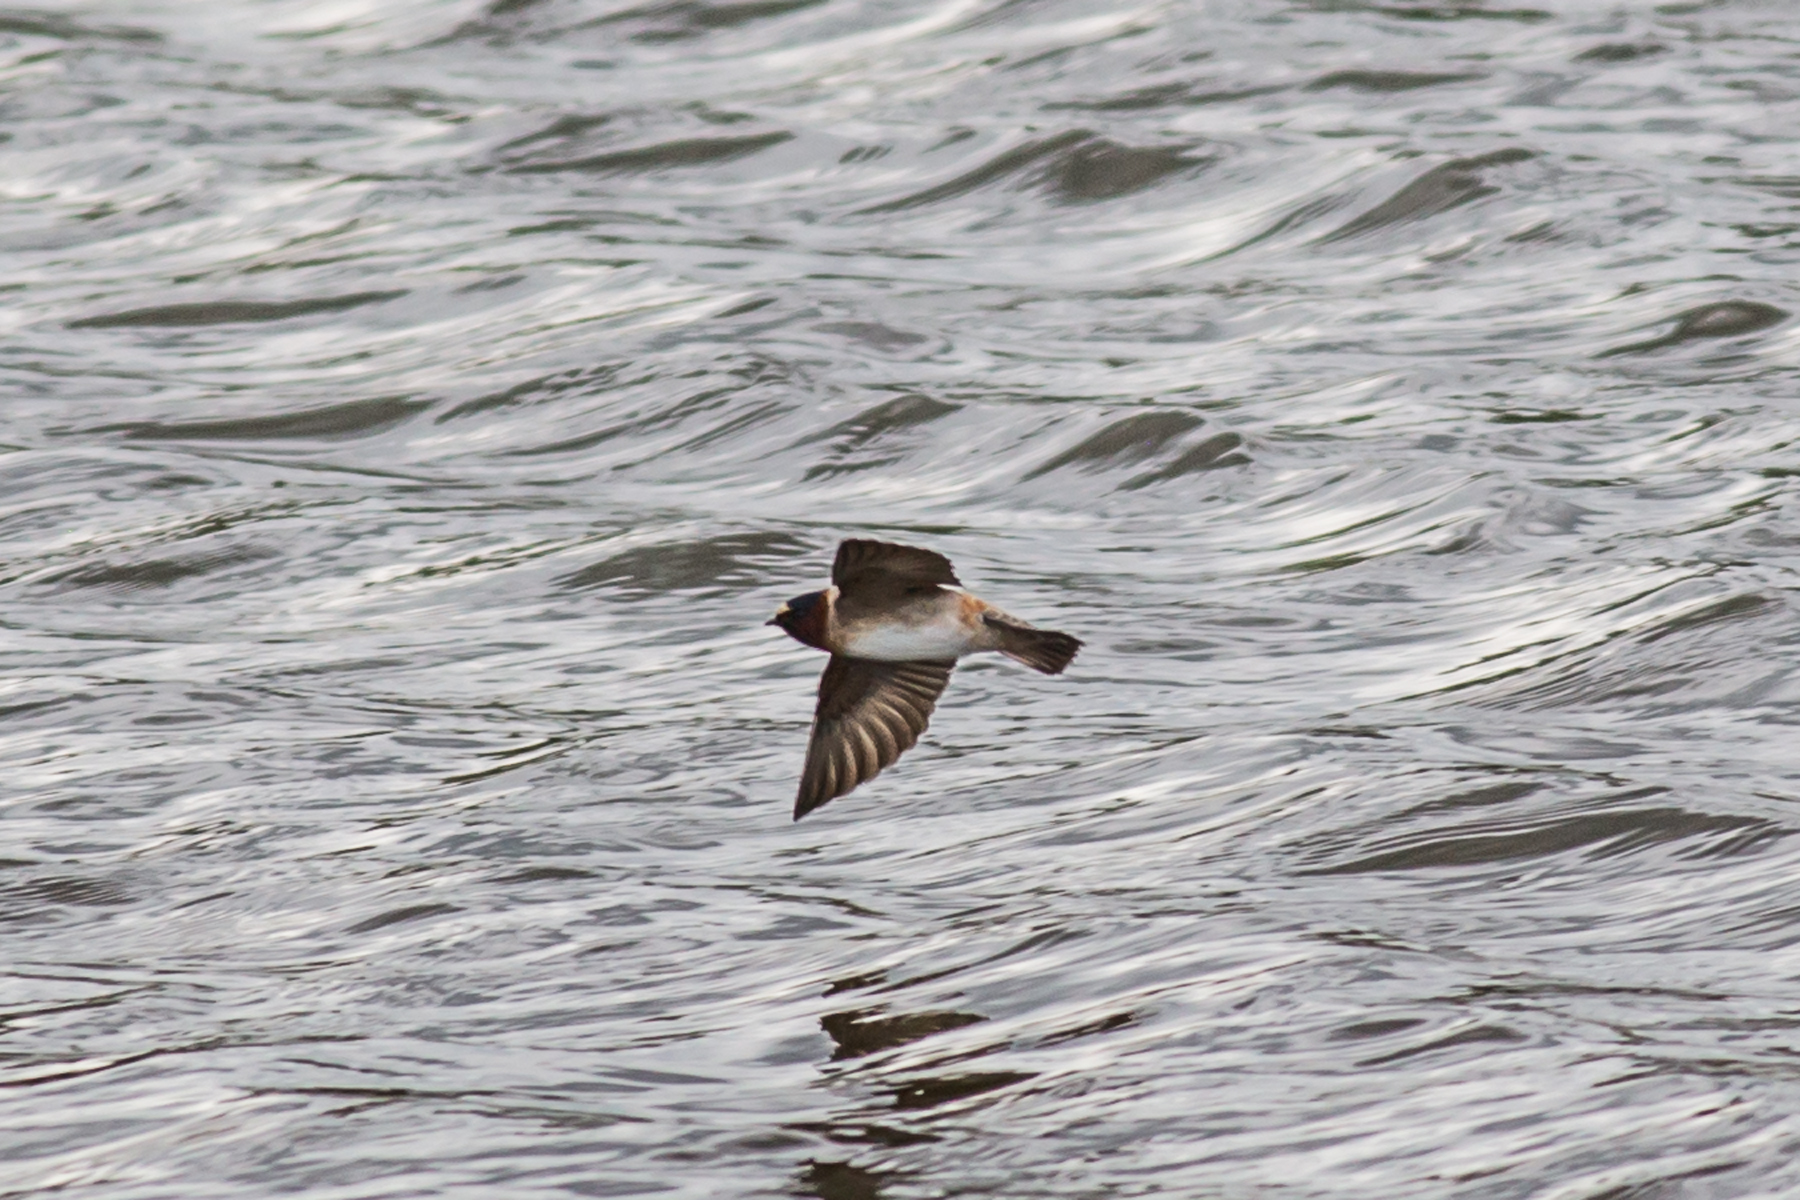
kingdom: Animalia
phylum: Chordata
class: Aves
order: Passeriformes
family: Hirundinidae
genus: Petrochelidon
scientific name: Petrochelidon pyrrhonota
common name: American cliff swallow
